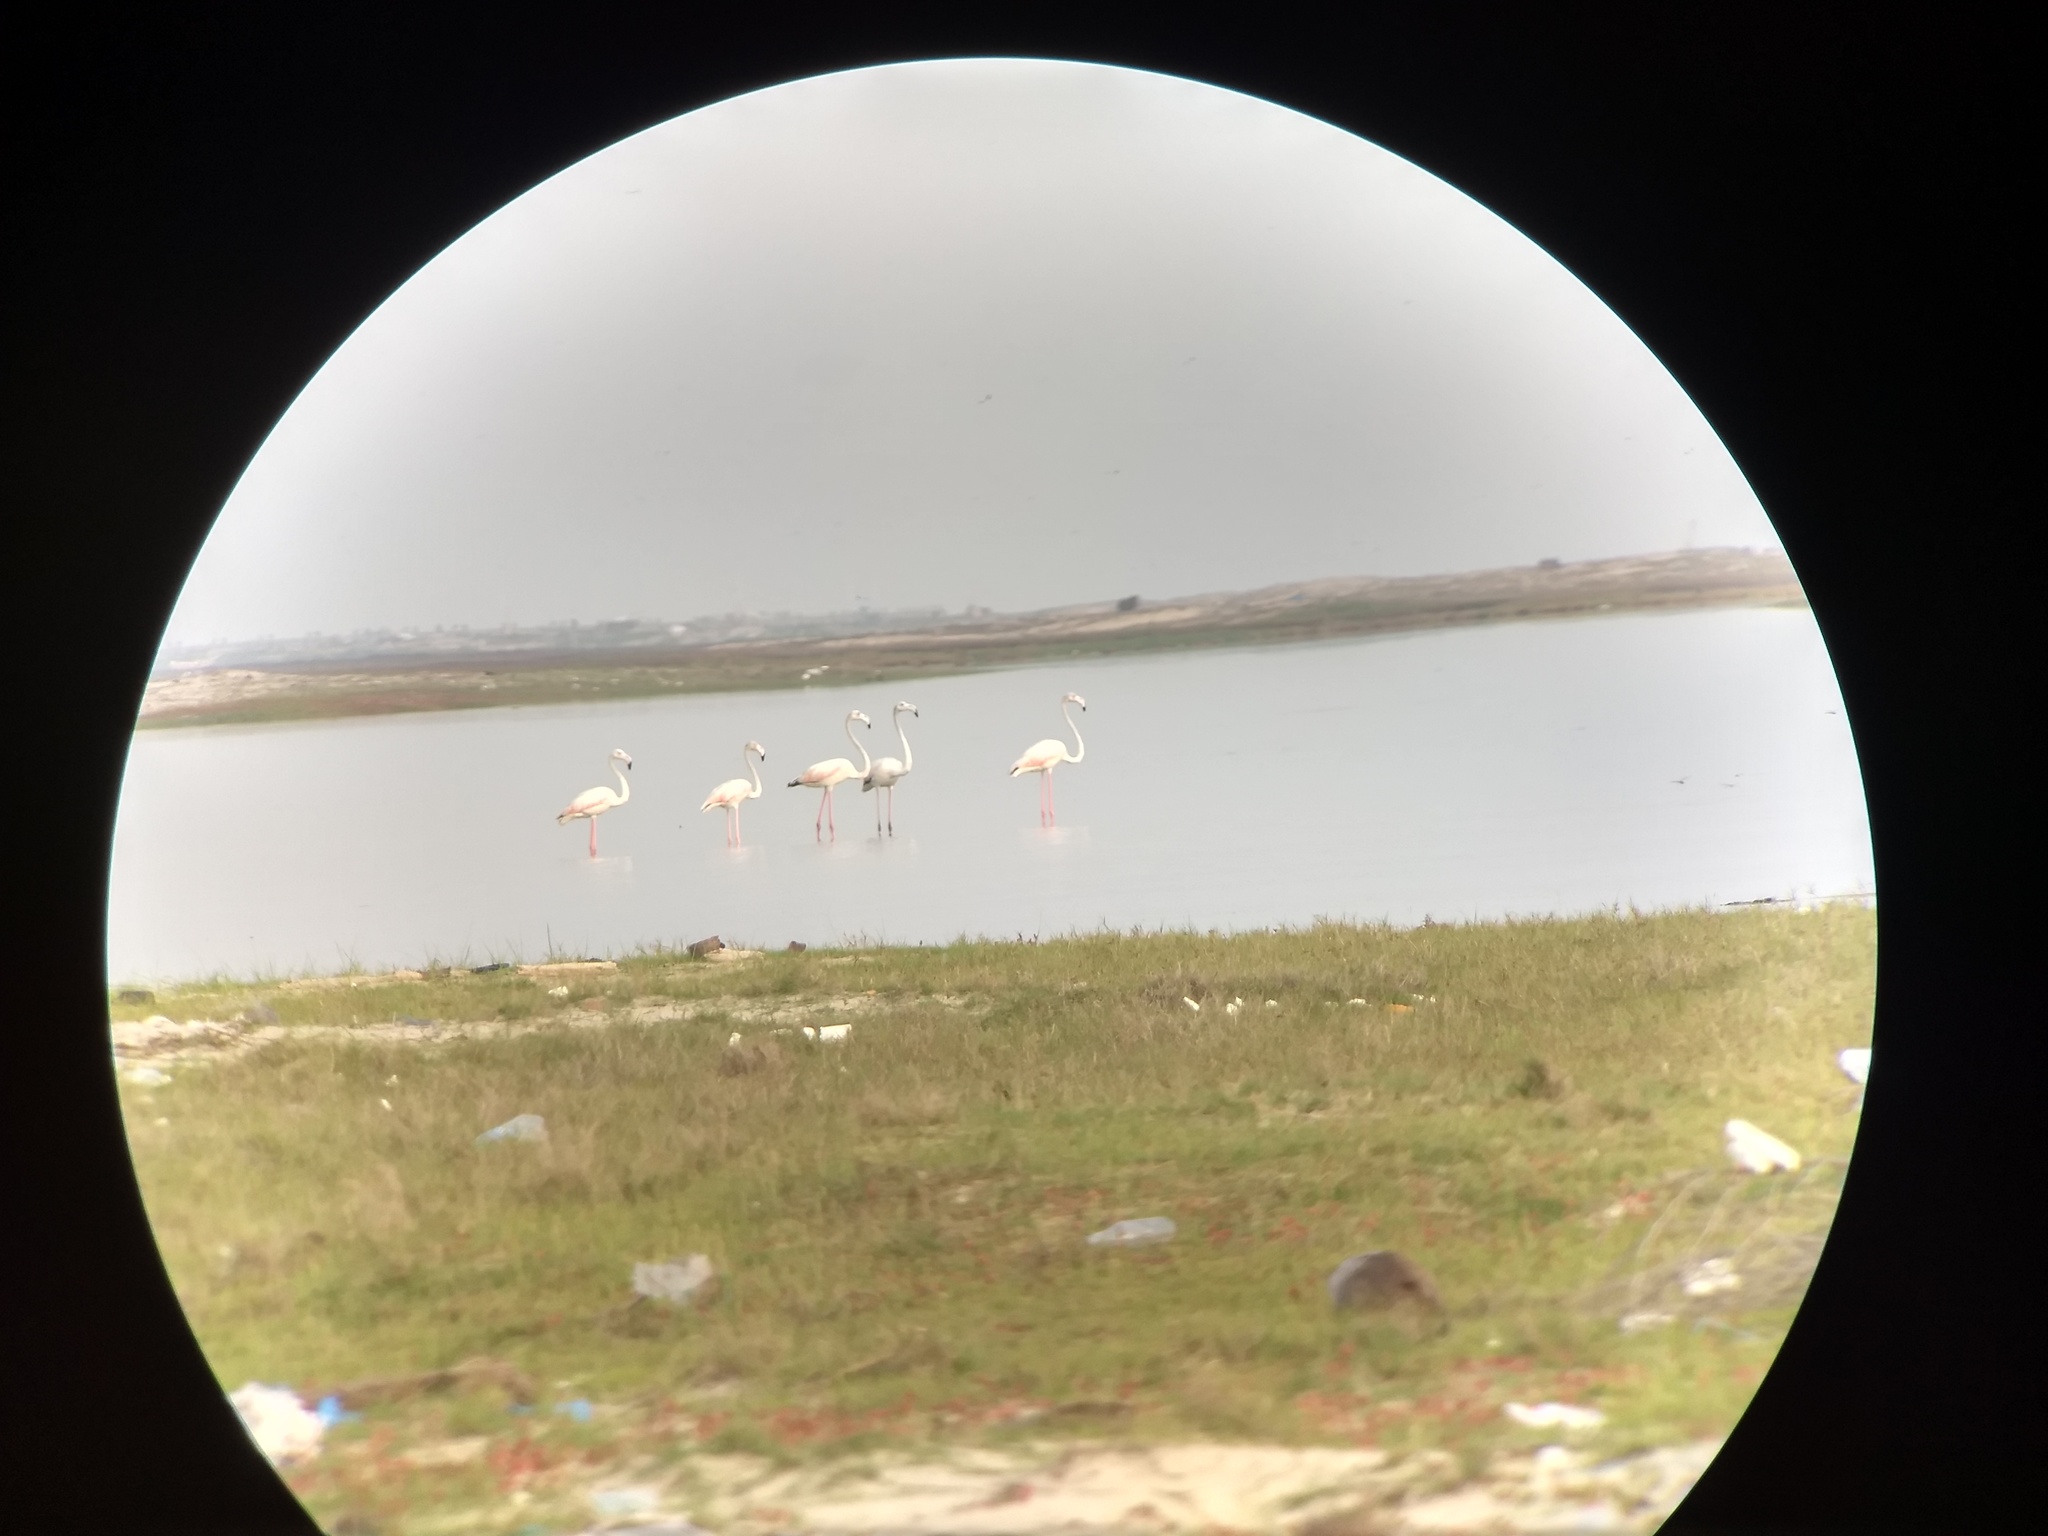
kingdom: Animalia
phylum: Chordata
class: Aves
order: Phoenicopteriformes
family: Phoenicopteridae
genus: Phoenicopterus
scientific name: Phoenicopterus roseus
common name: Greater flamingo
